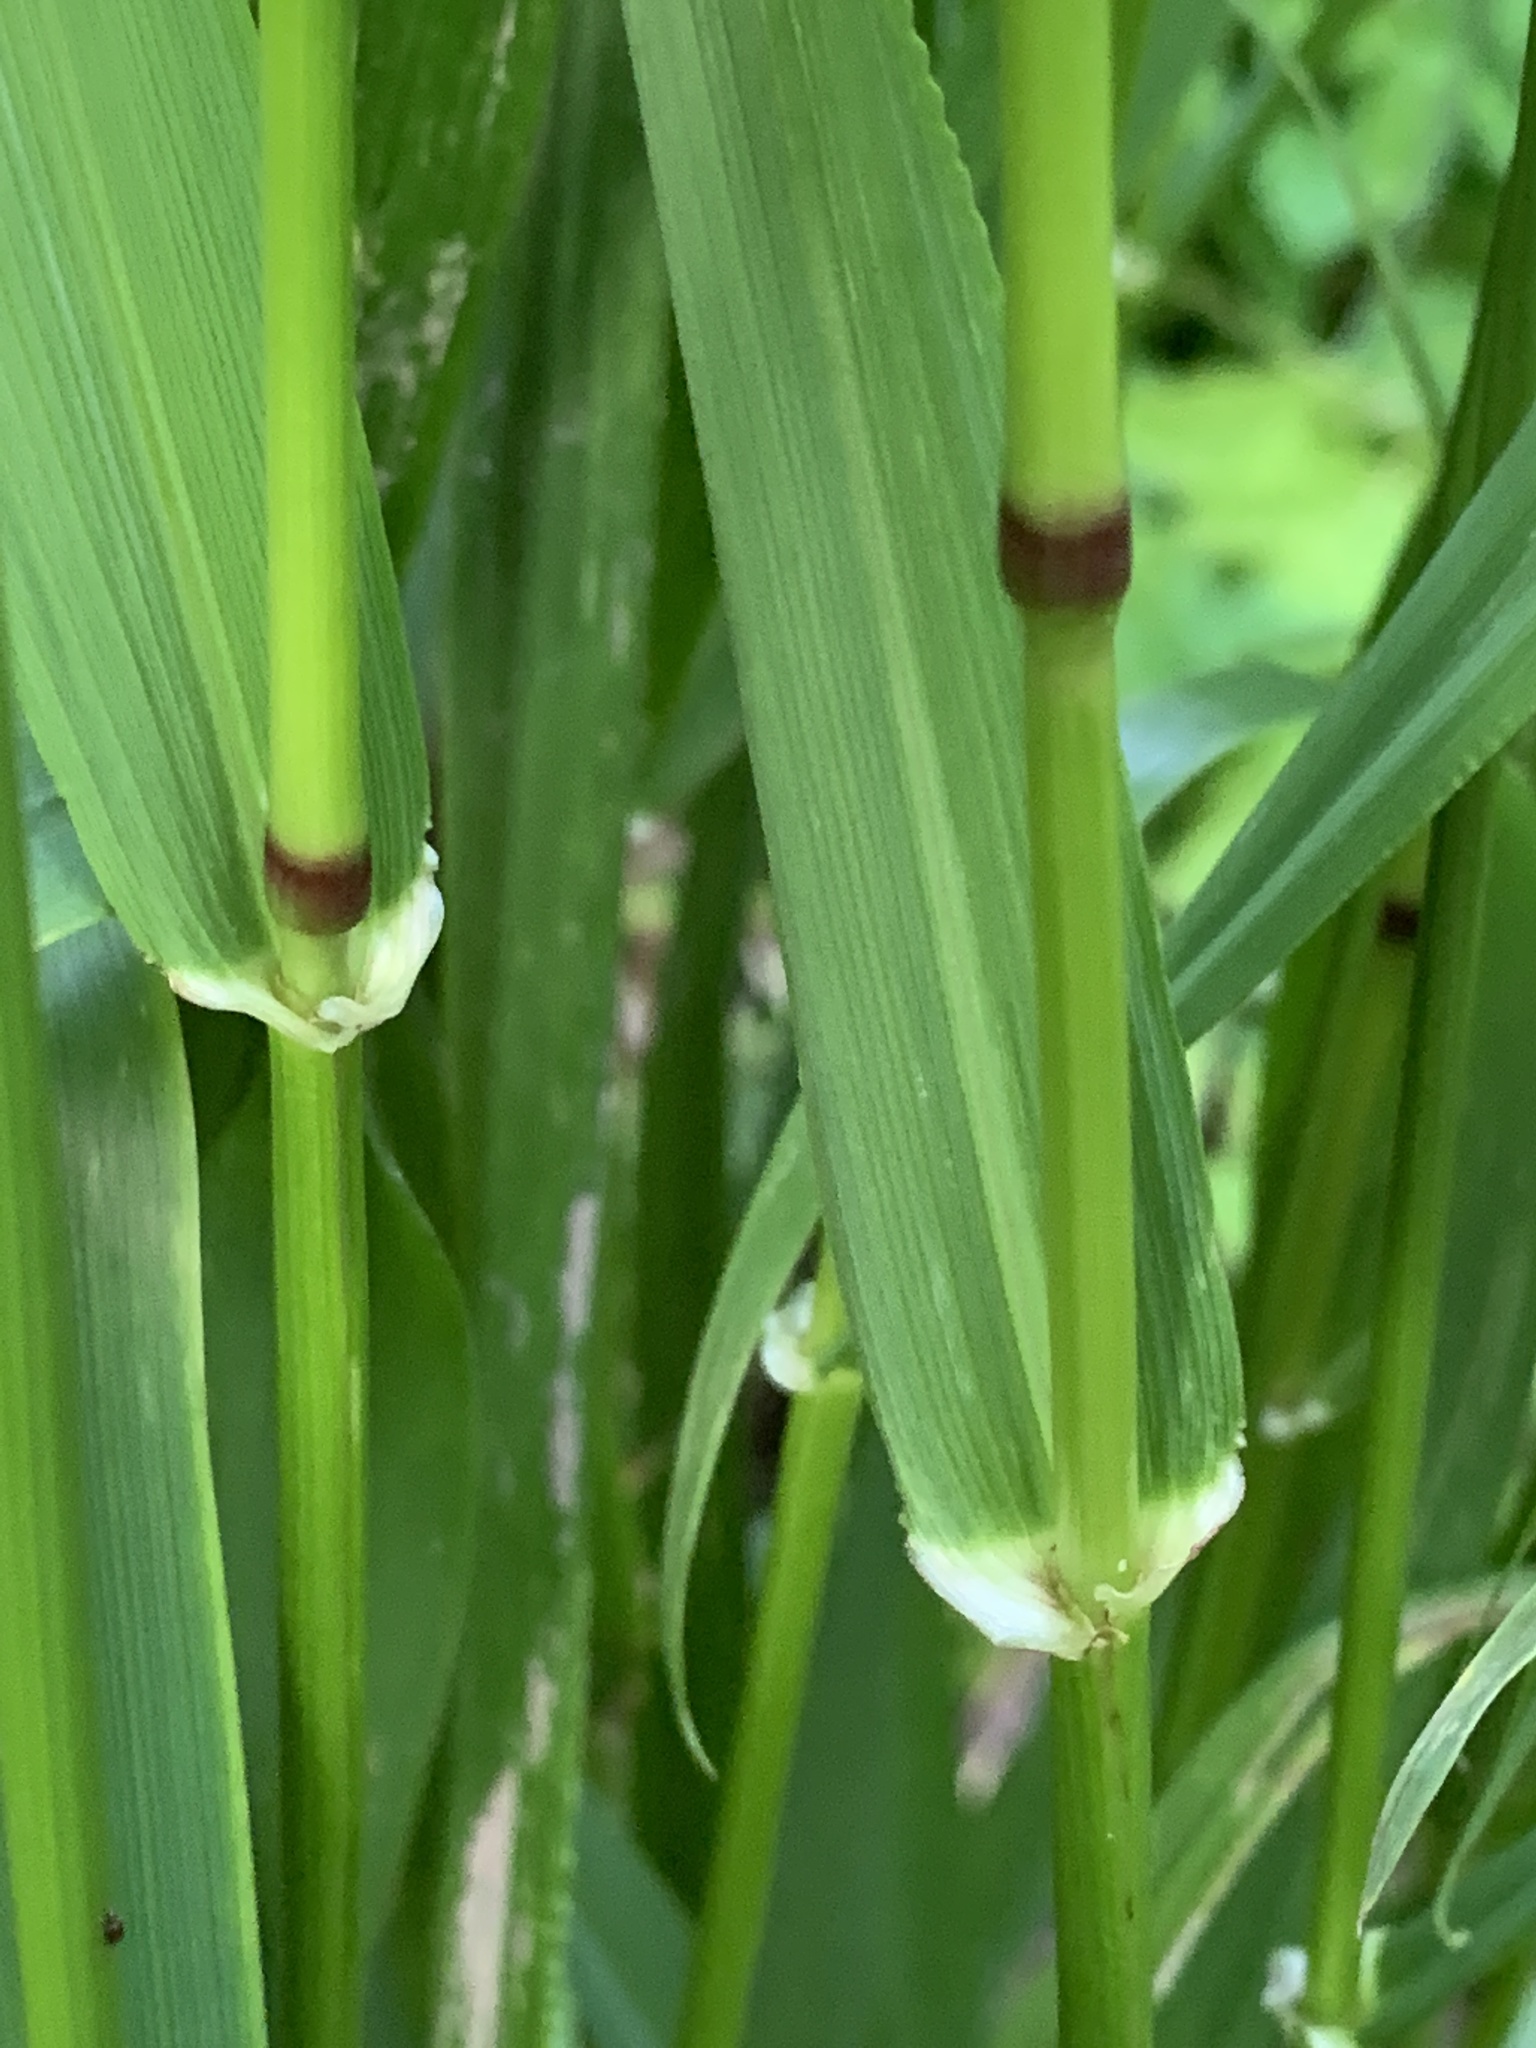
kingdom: Plantae
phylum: Tracheophyta
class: Liliopsida
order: Poales
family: Poaceae
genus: Lolium
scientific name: Lolium giganteum
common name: Giant fescue
